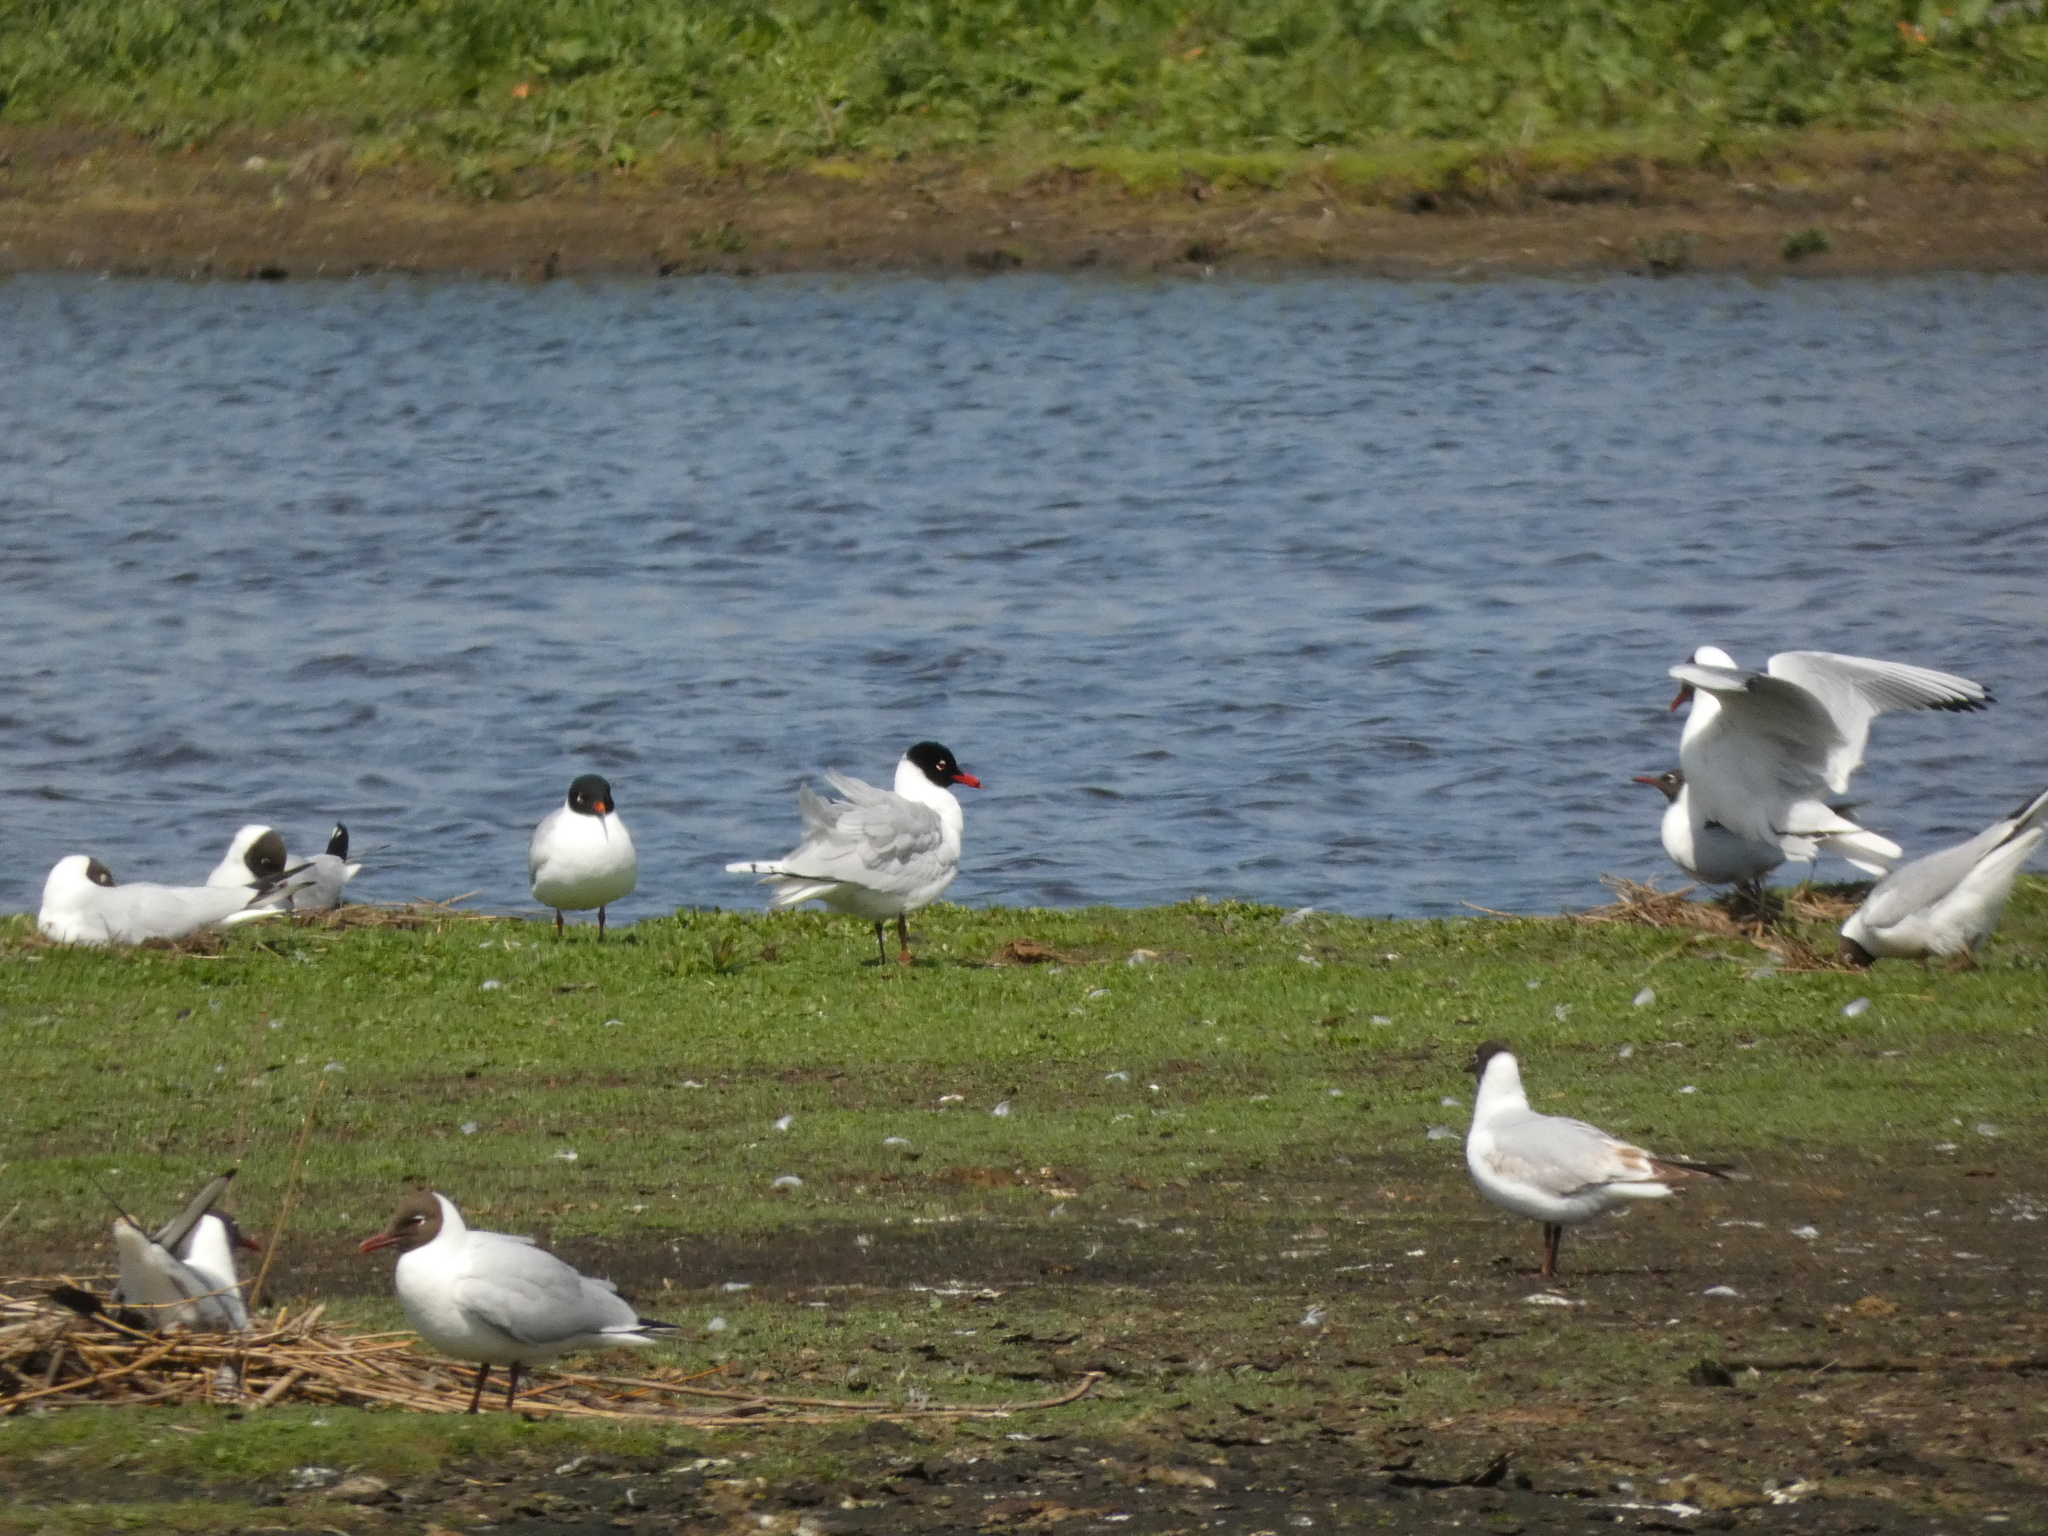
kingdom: Animalia
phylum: Chordata
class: Aves
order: Charadriiformes
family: Laridae
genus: Ichthyaetus
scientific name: Ichthyaetus melanocephalus
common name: Mediterranean gull
